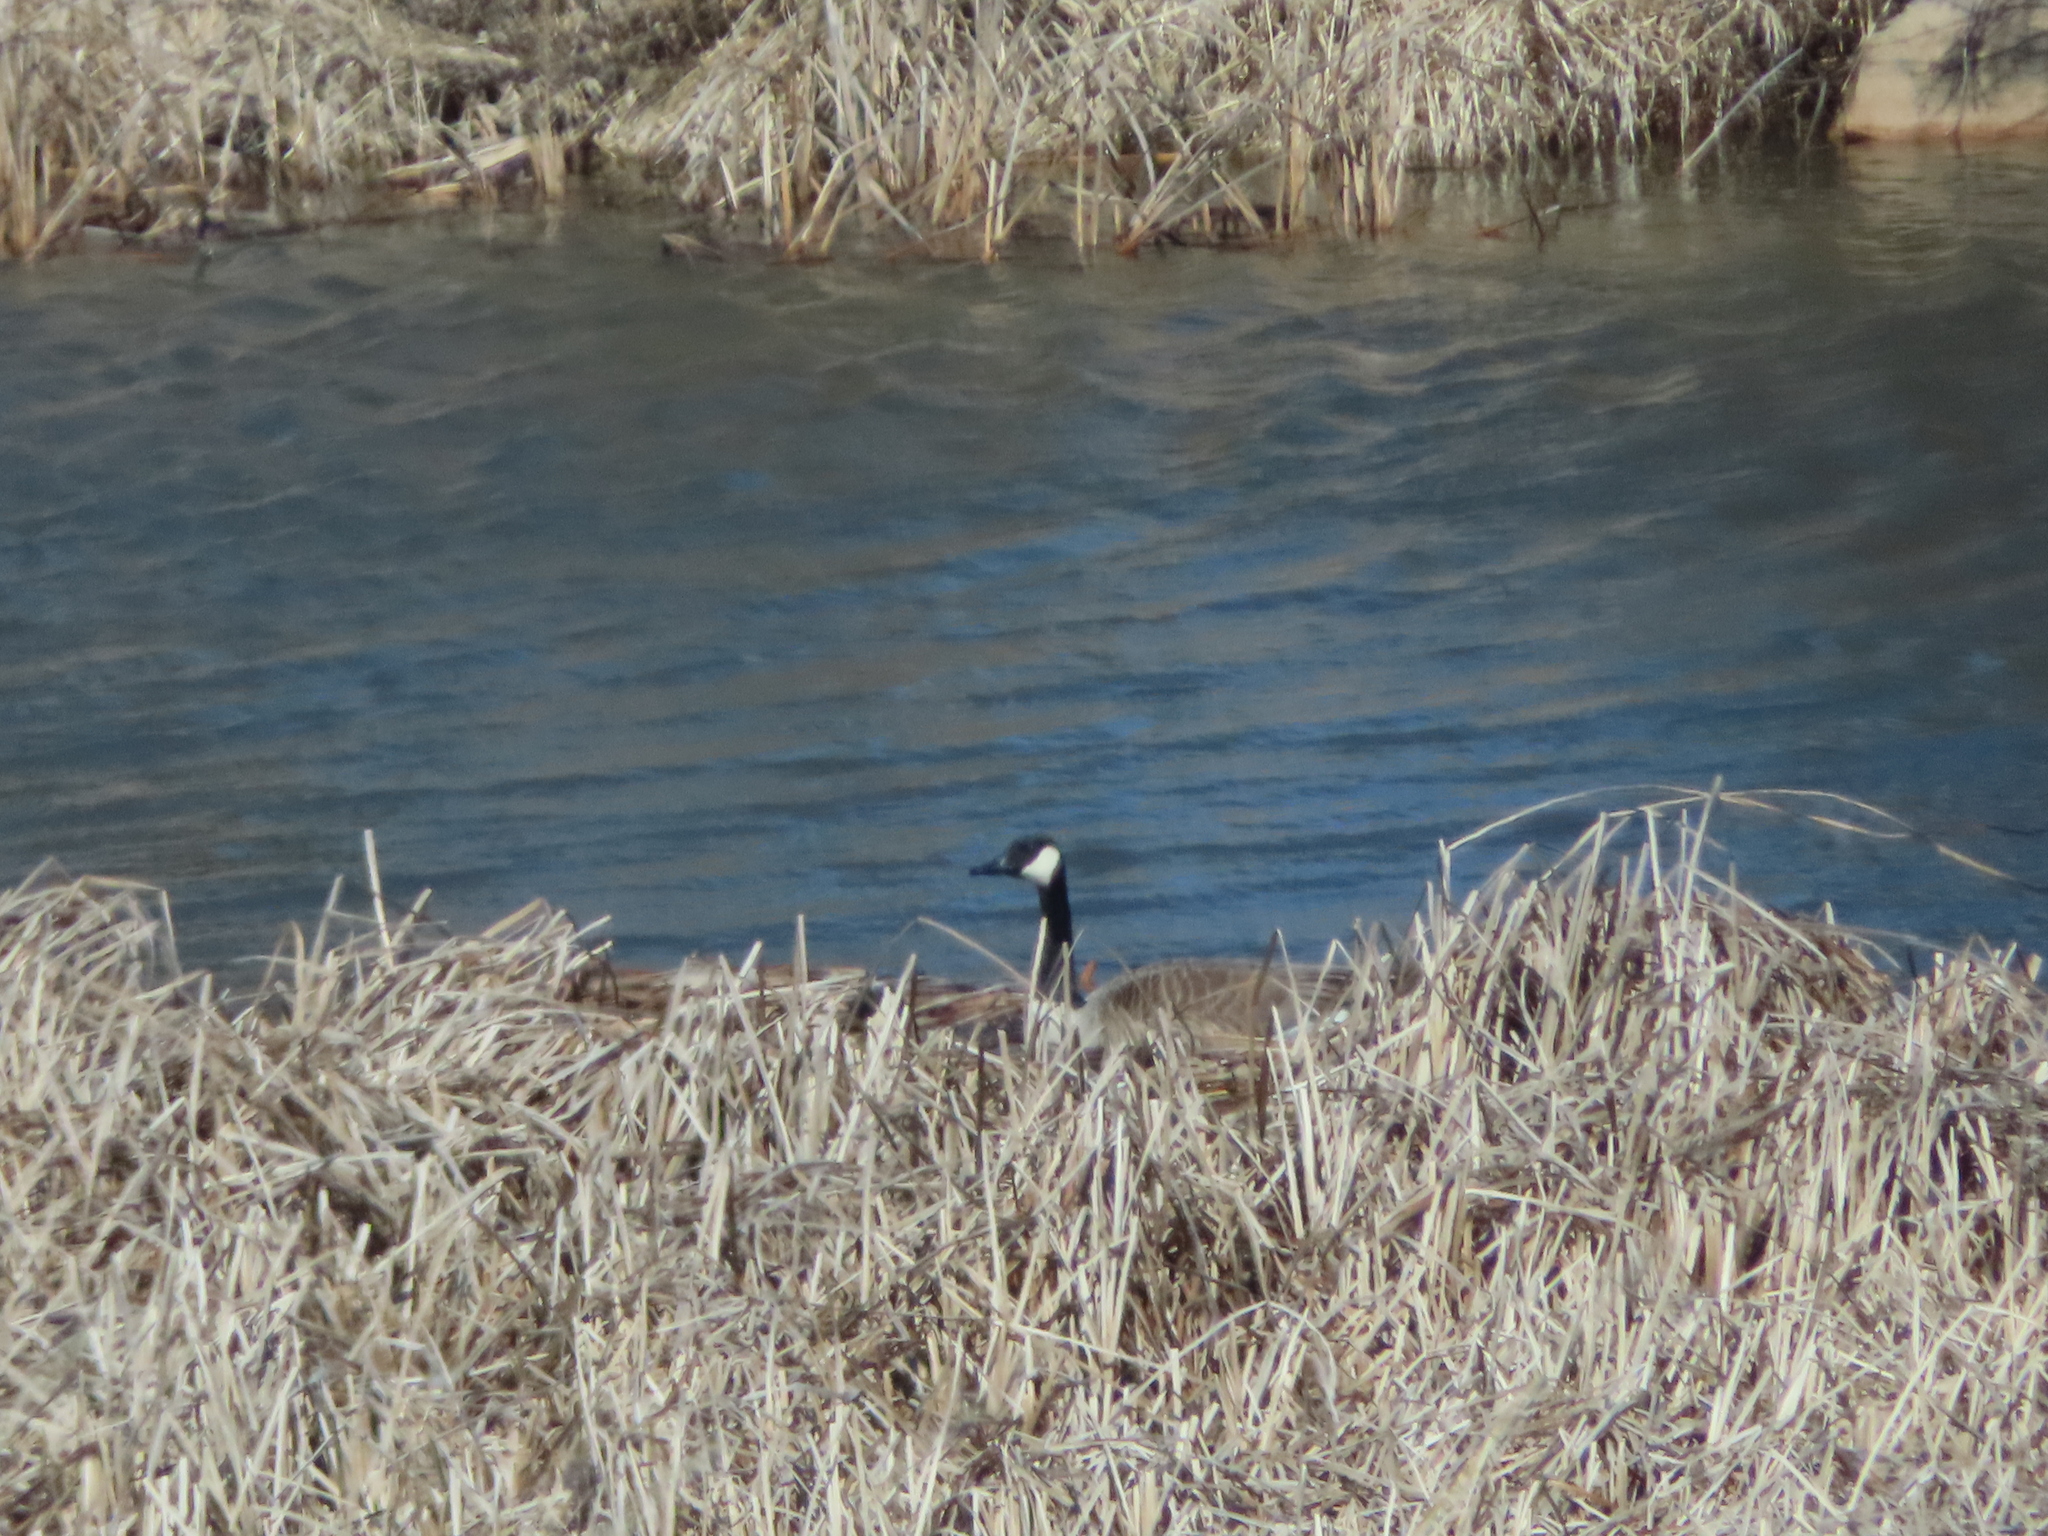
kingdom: Animalia
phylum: Chordata
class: Aves
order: Anseriformes
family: Anatidae
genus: Branta
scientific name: Branta canadensis
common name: Canada goose
